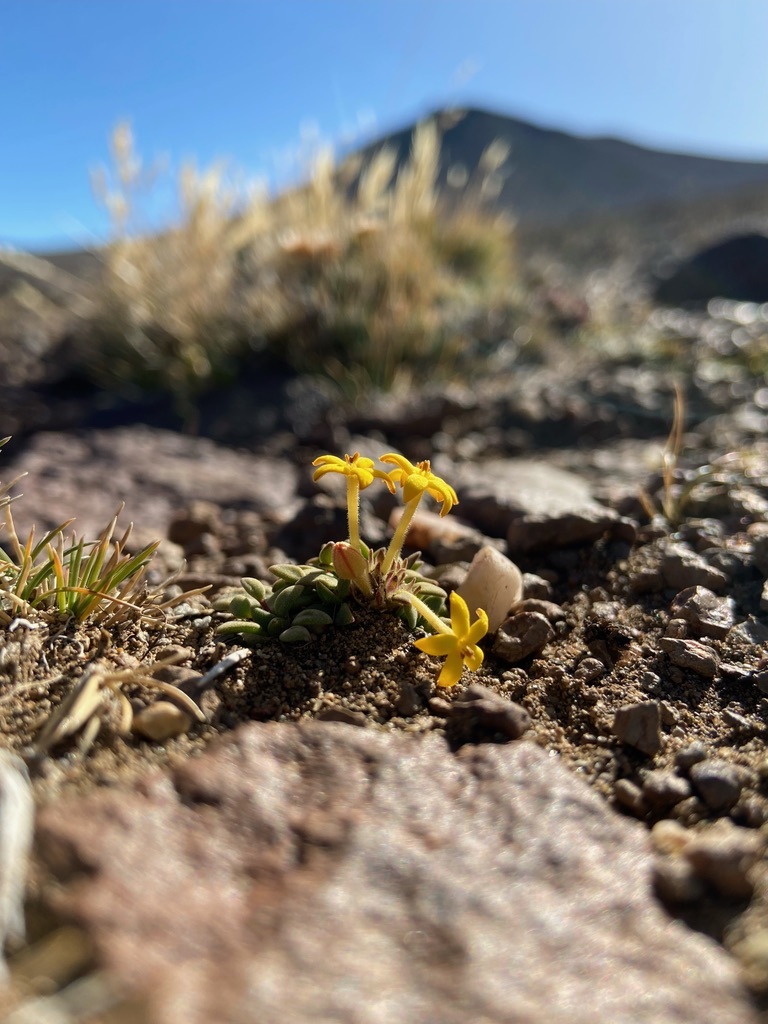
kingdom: Plantae
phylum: Tracheophyta
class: Magnoliopsida
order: Gentianales
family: Rubiaceae
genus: Oreopolus
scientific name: Oreopolus glacialis
